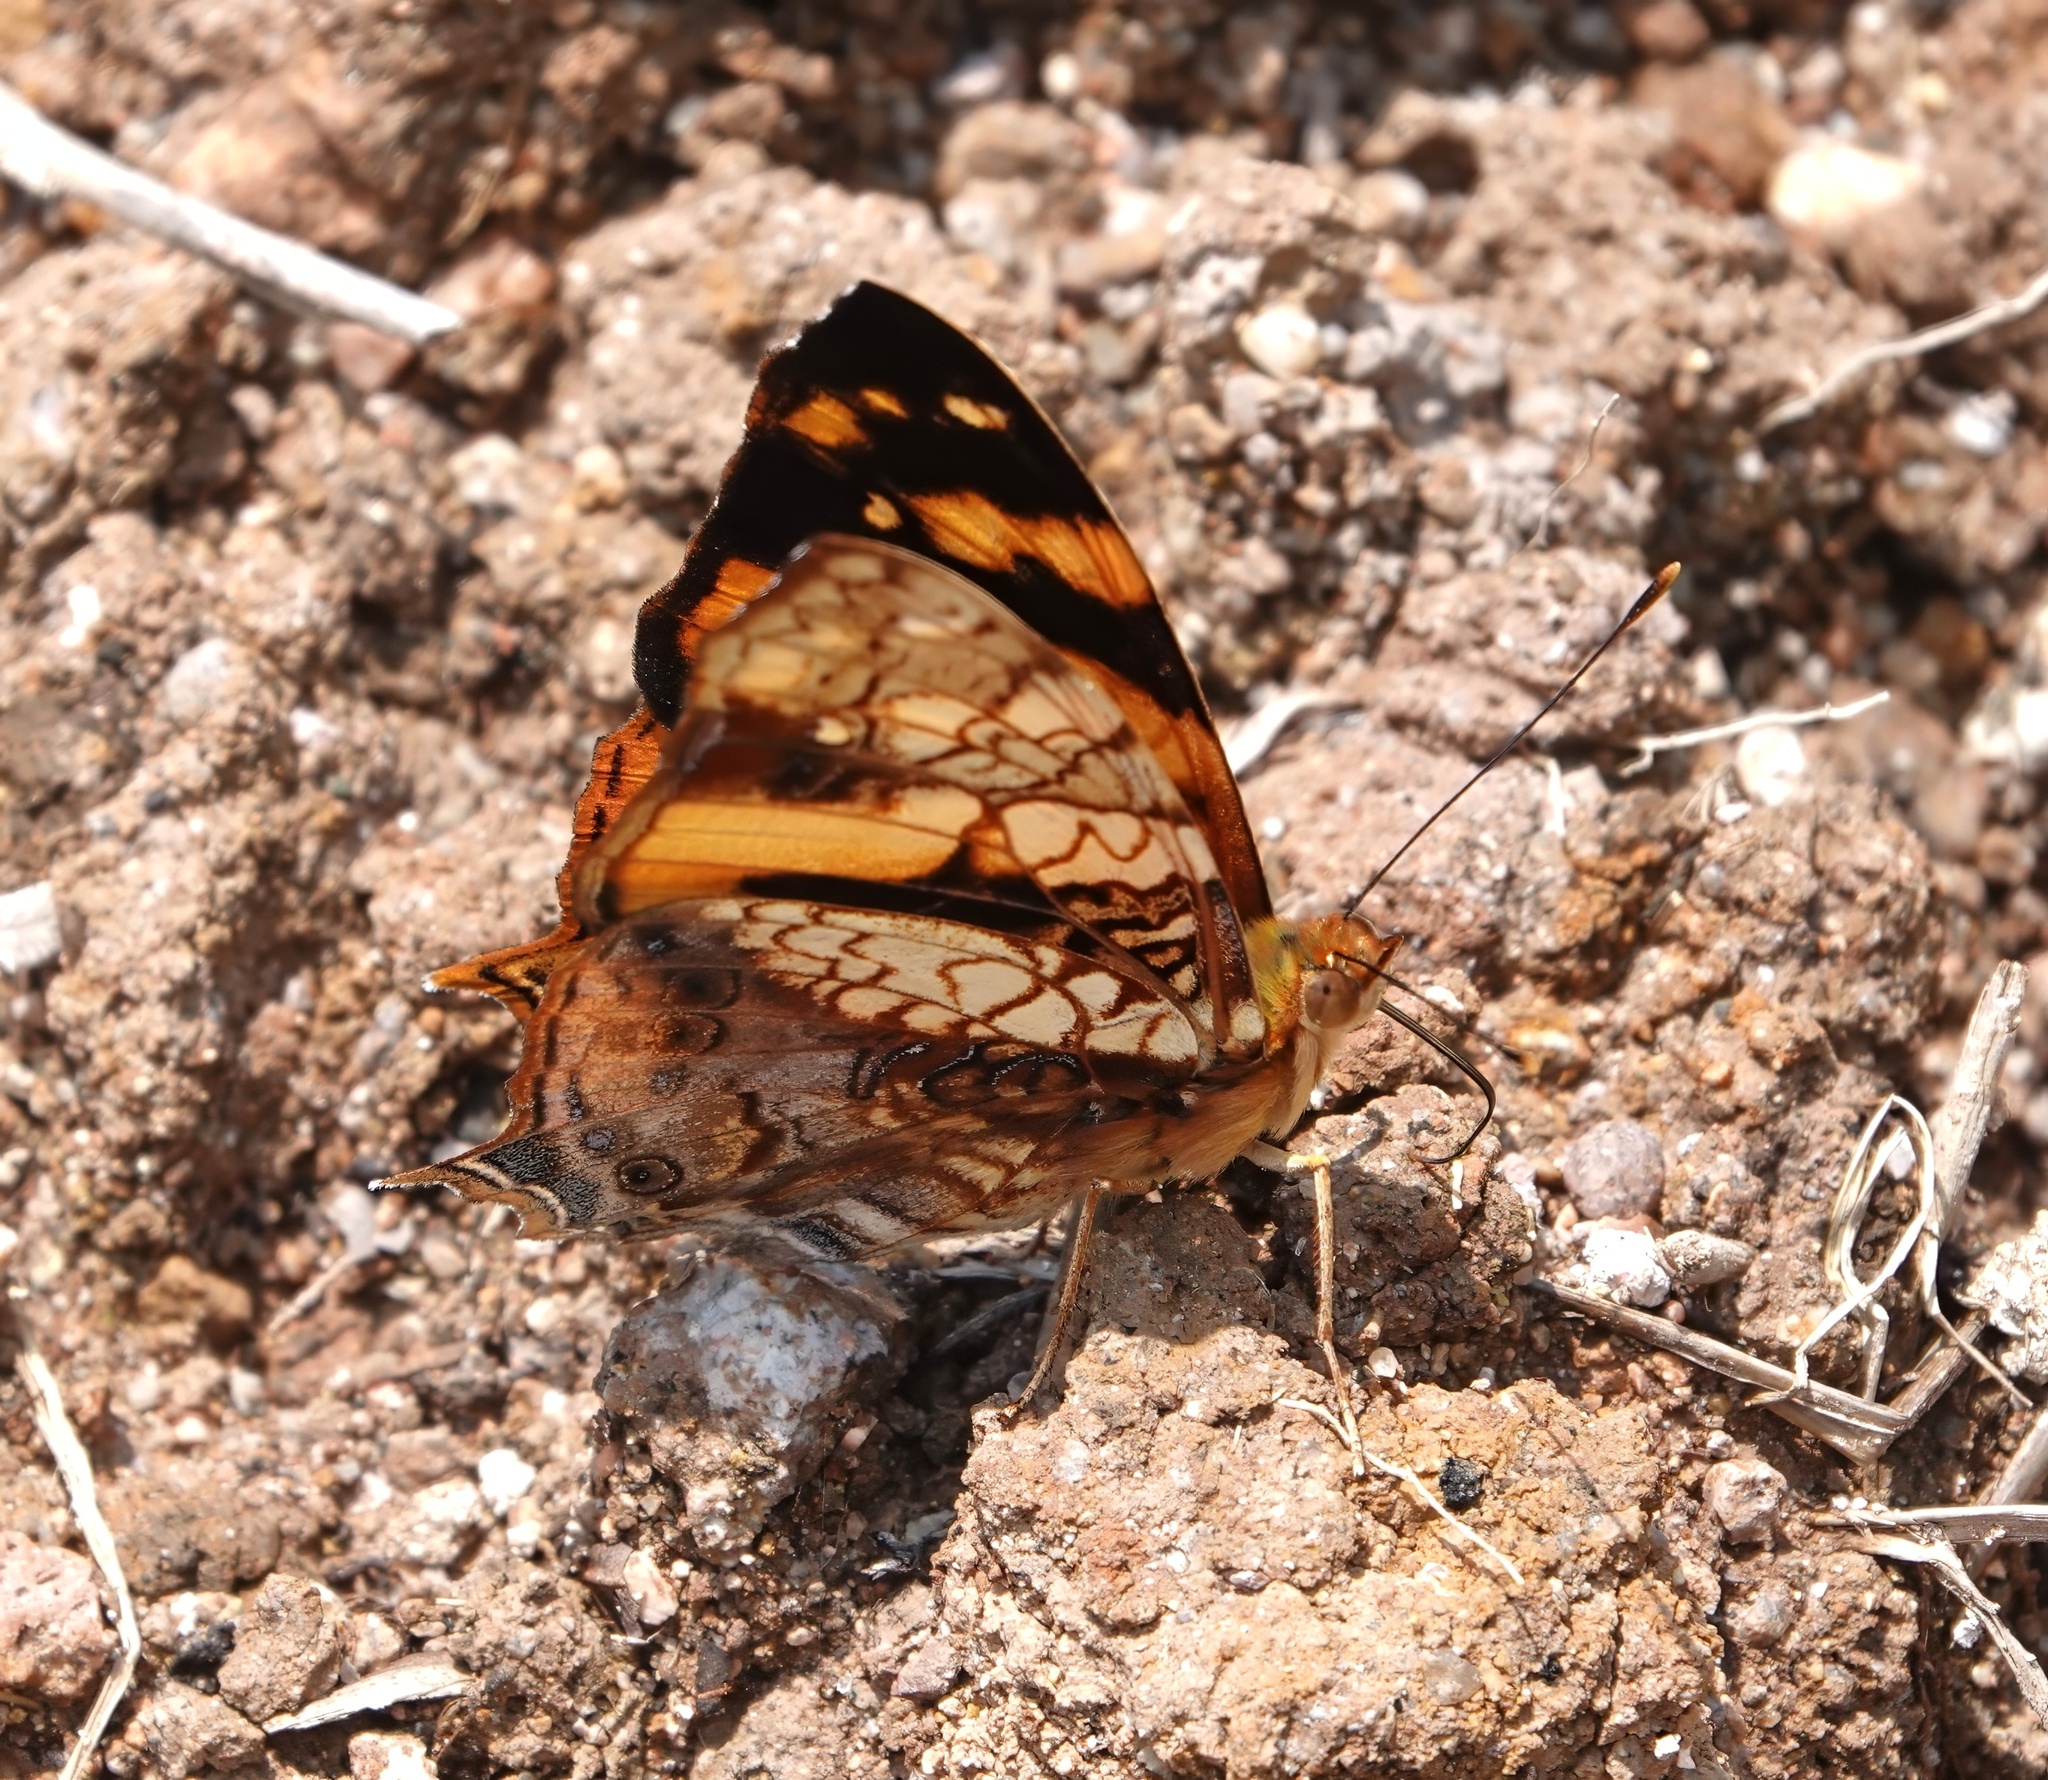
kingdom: Animalia
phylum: Arthropoda
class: Insecta
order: Lepidoptera
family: Nymphalidae
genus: Hypanartia
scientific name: Hypanartia lethe
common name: Orange mapwing
